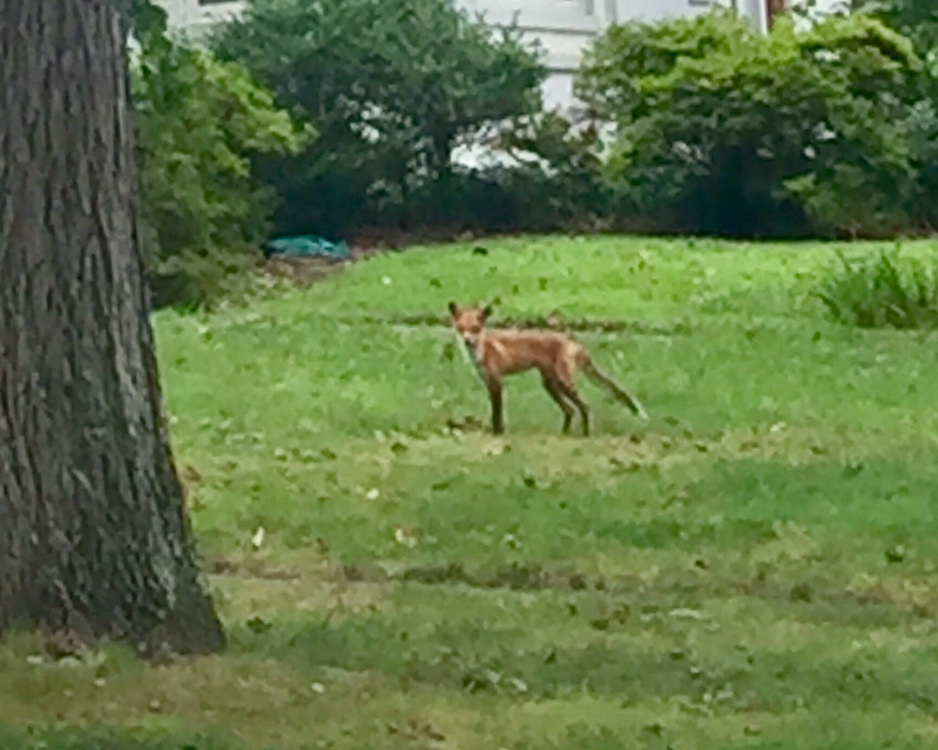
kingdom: Animalia
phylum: Chordata
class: Mammalia
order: Carnivora
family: Canidae
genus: Vulpes
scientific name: Vulpes vulpes
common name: Red fox
